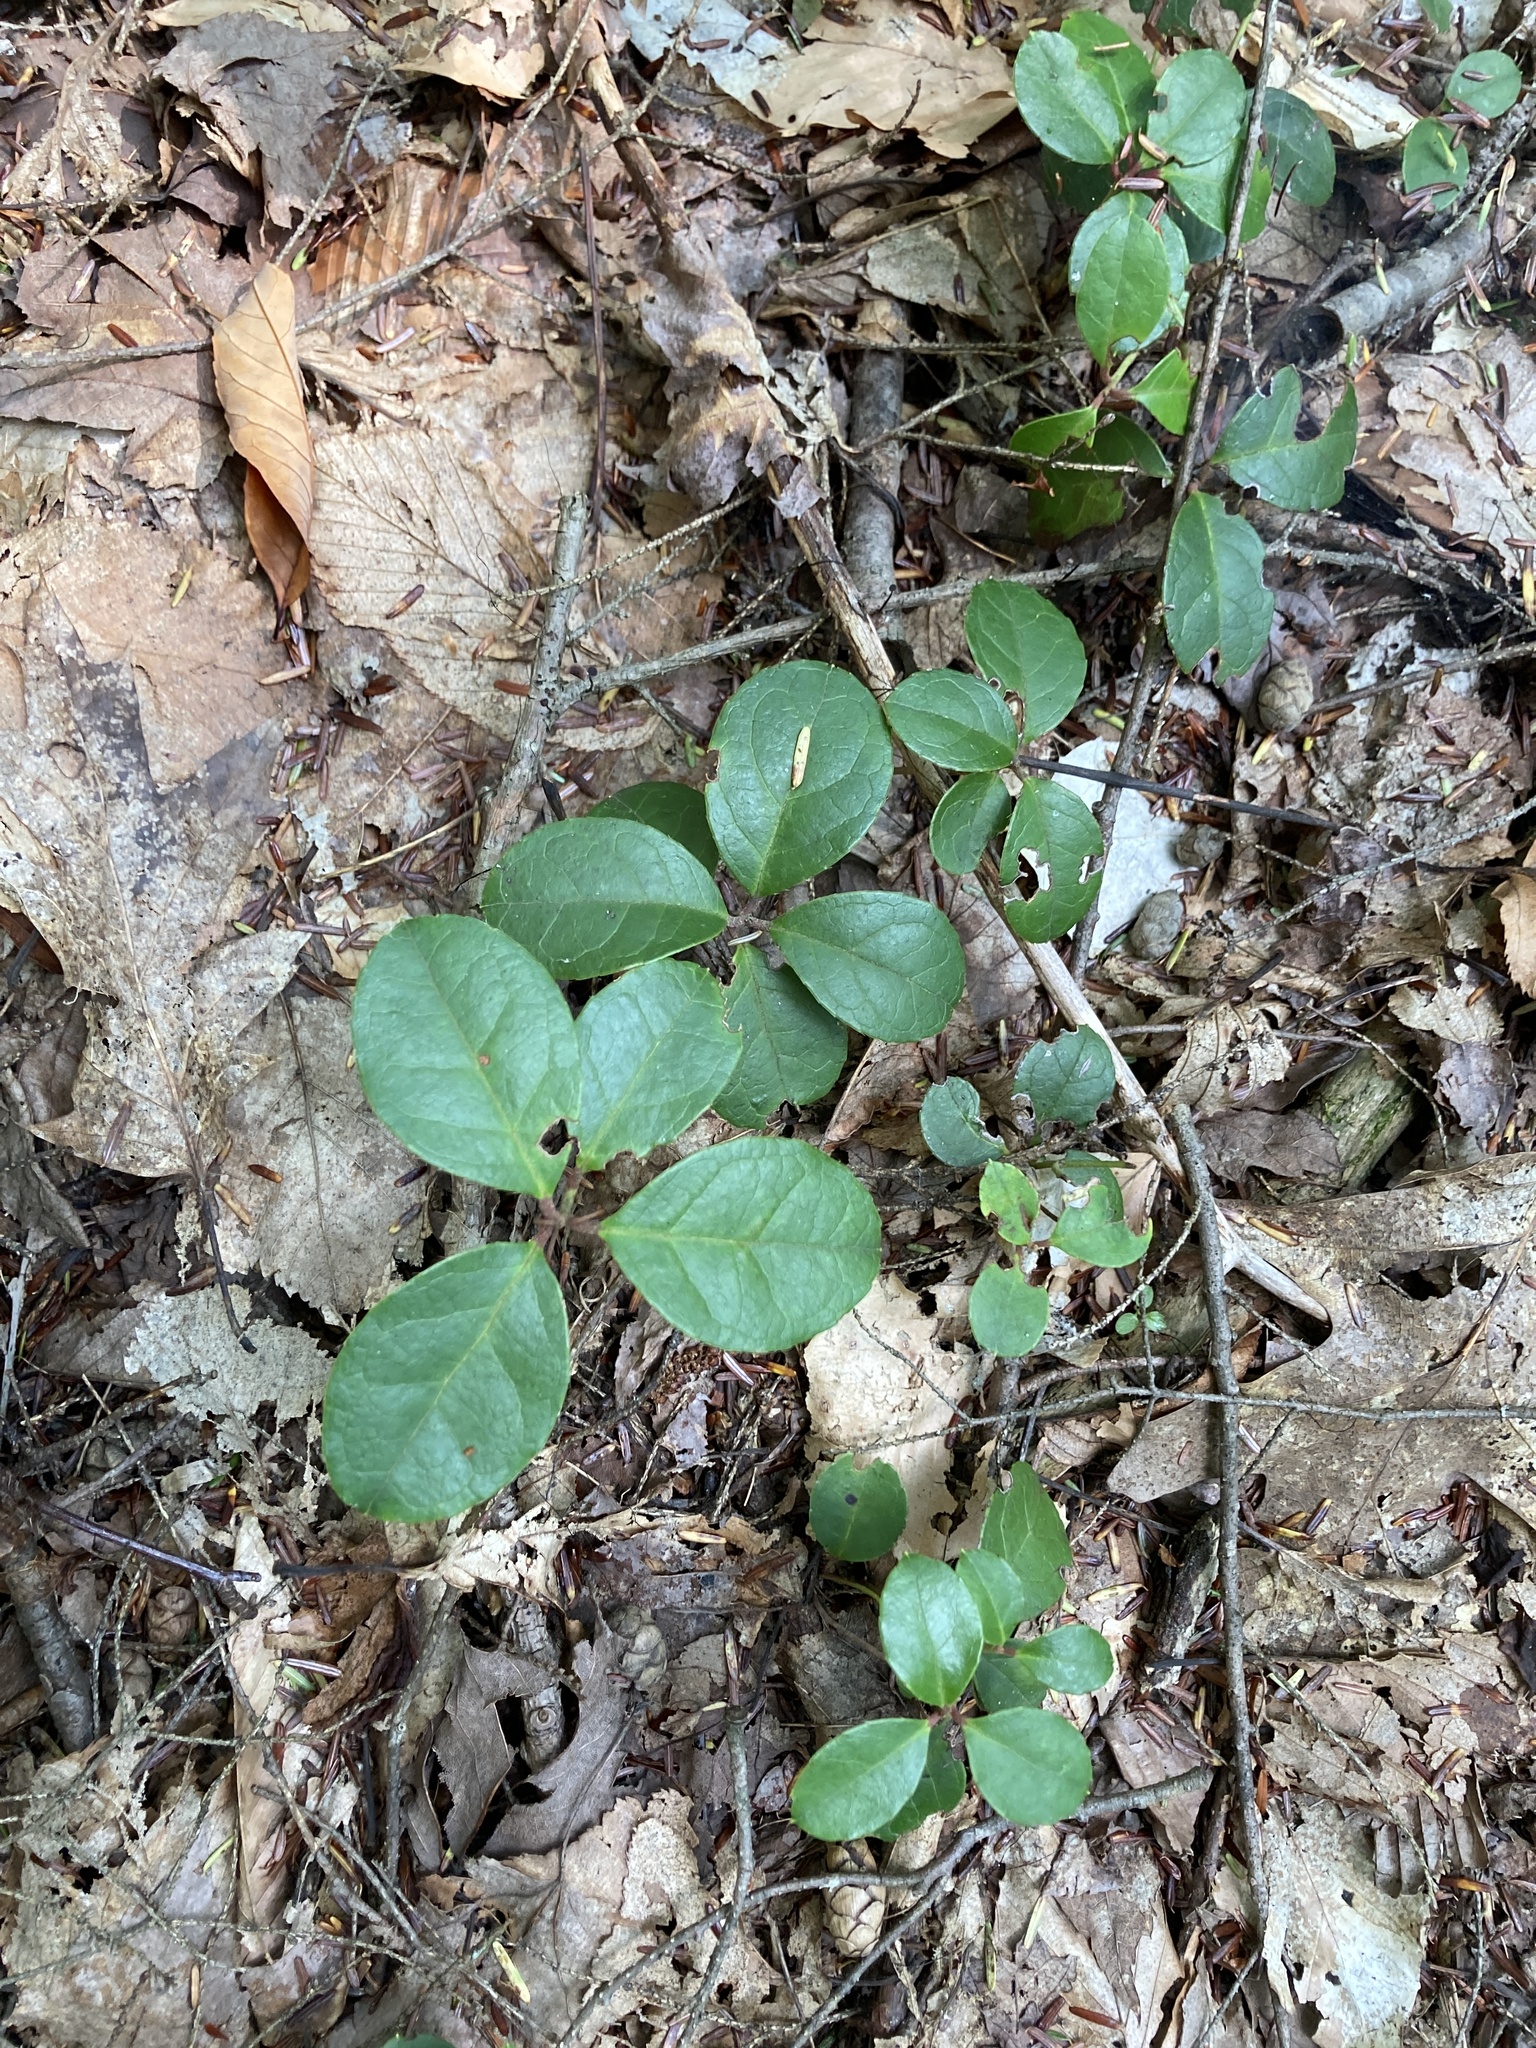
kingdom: Plantae
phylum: Tracheophyta
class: Magnoliopsida
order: Ericales
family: Ericaceae
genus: Gaultheria
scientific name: Gaultheria procumbens
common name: Checkerberry
